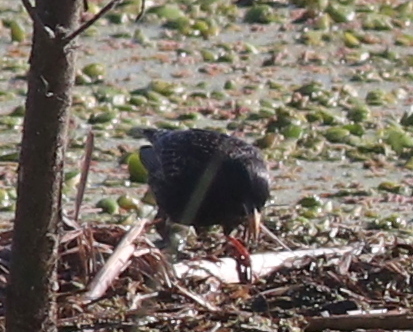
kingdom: Animalia
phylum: Chordata
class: Aves
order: Passeriformes
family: Sturnidae
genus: Sturnus
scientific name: Sturnus vulgaris
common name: Common starling
